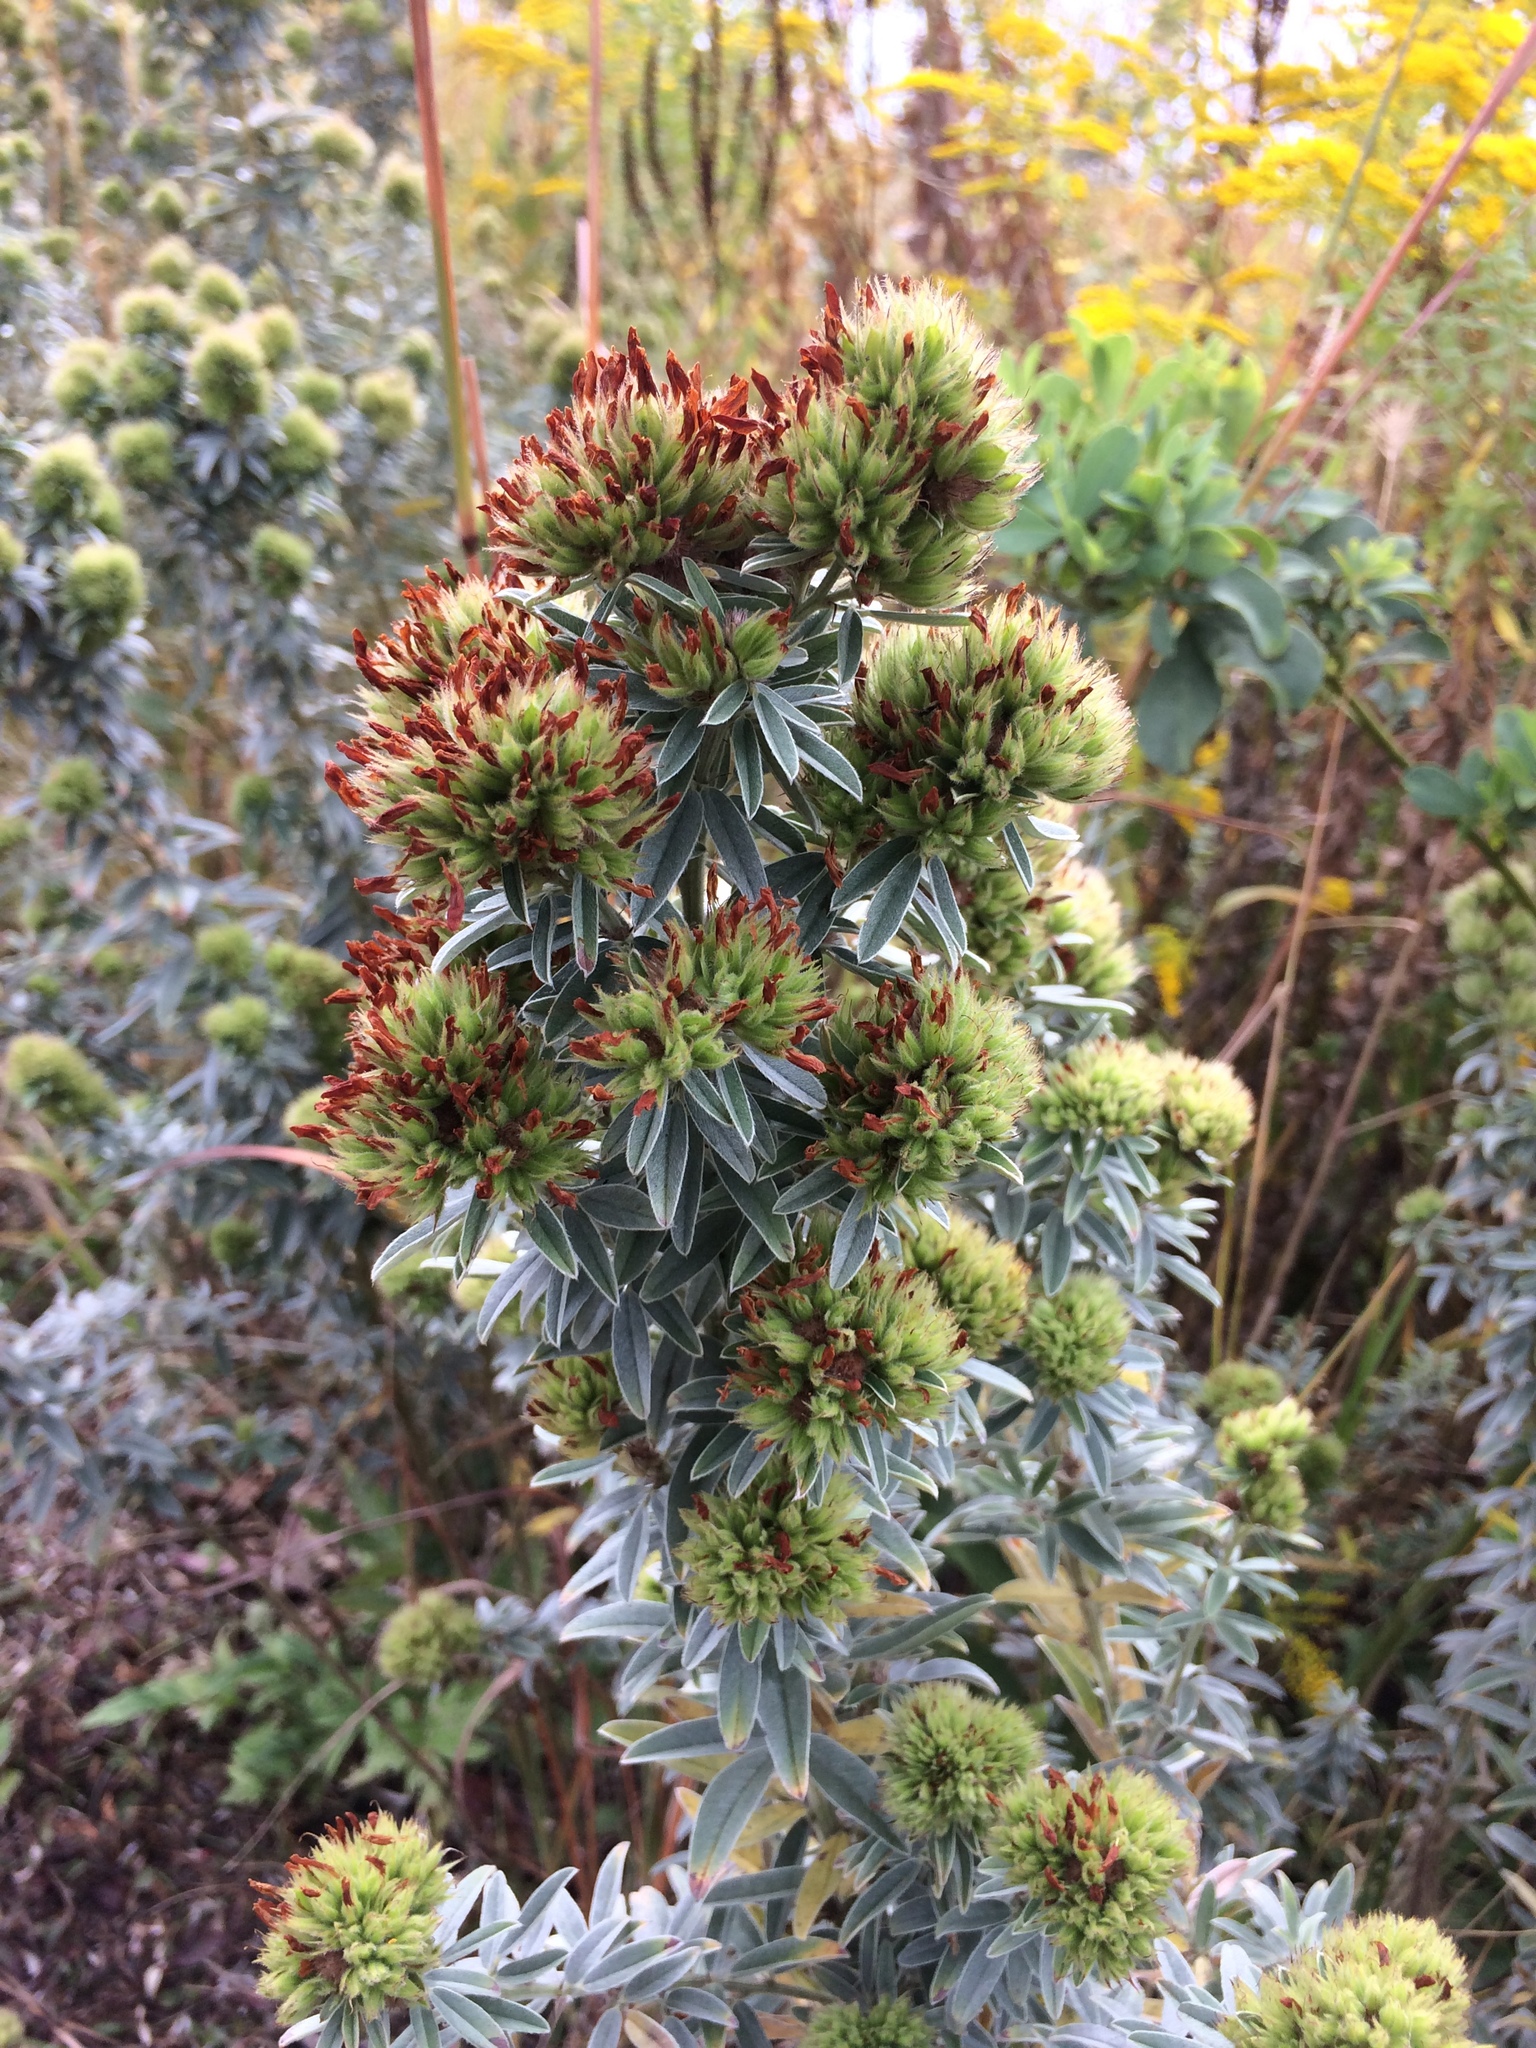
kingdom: Plantae
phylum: Tracheophyta
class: Magnoliopsida
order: Fabales
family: Fabaceae
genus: Lespedeza
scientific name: Lespedeza capitata
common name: Dusty clover
